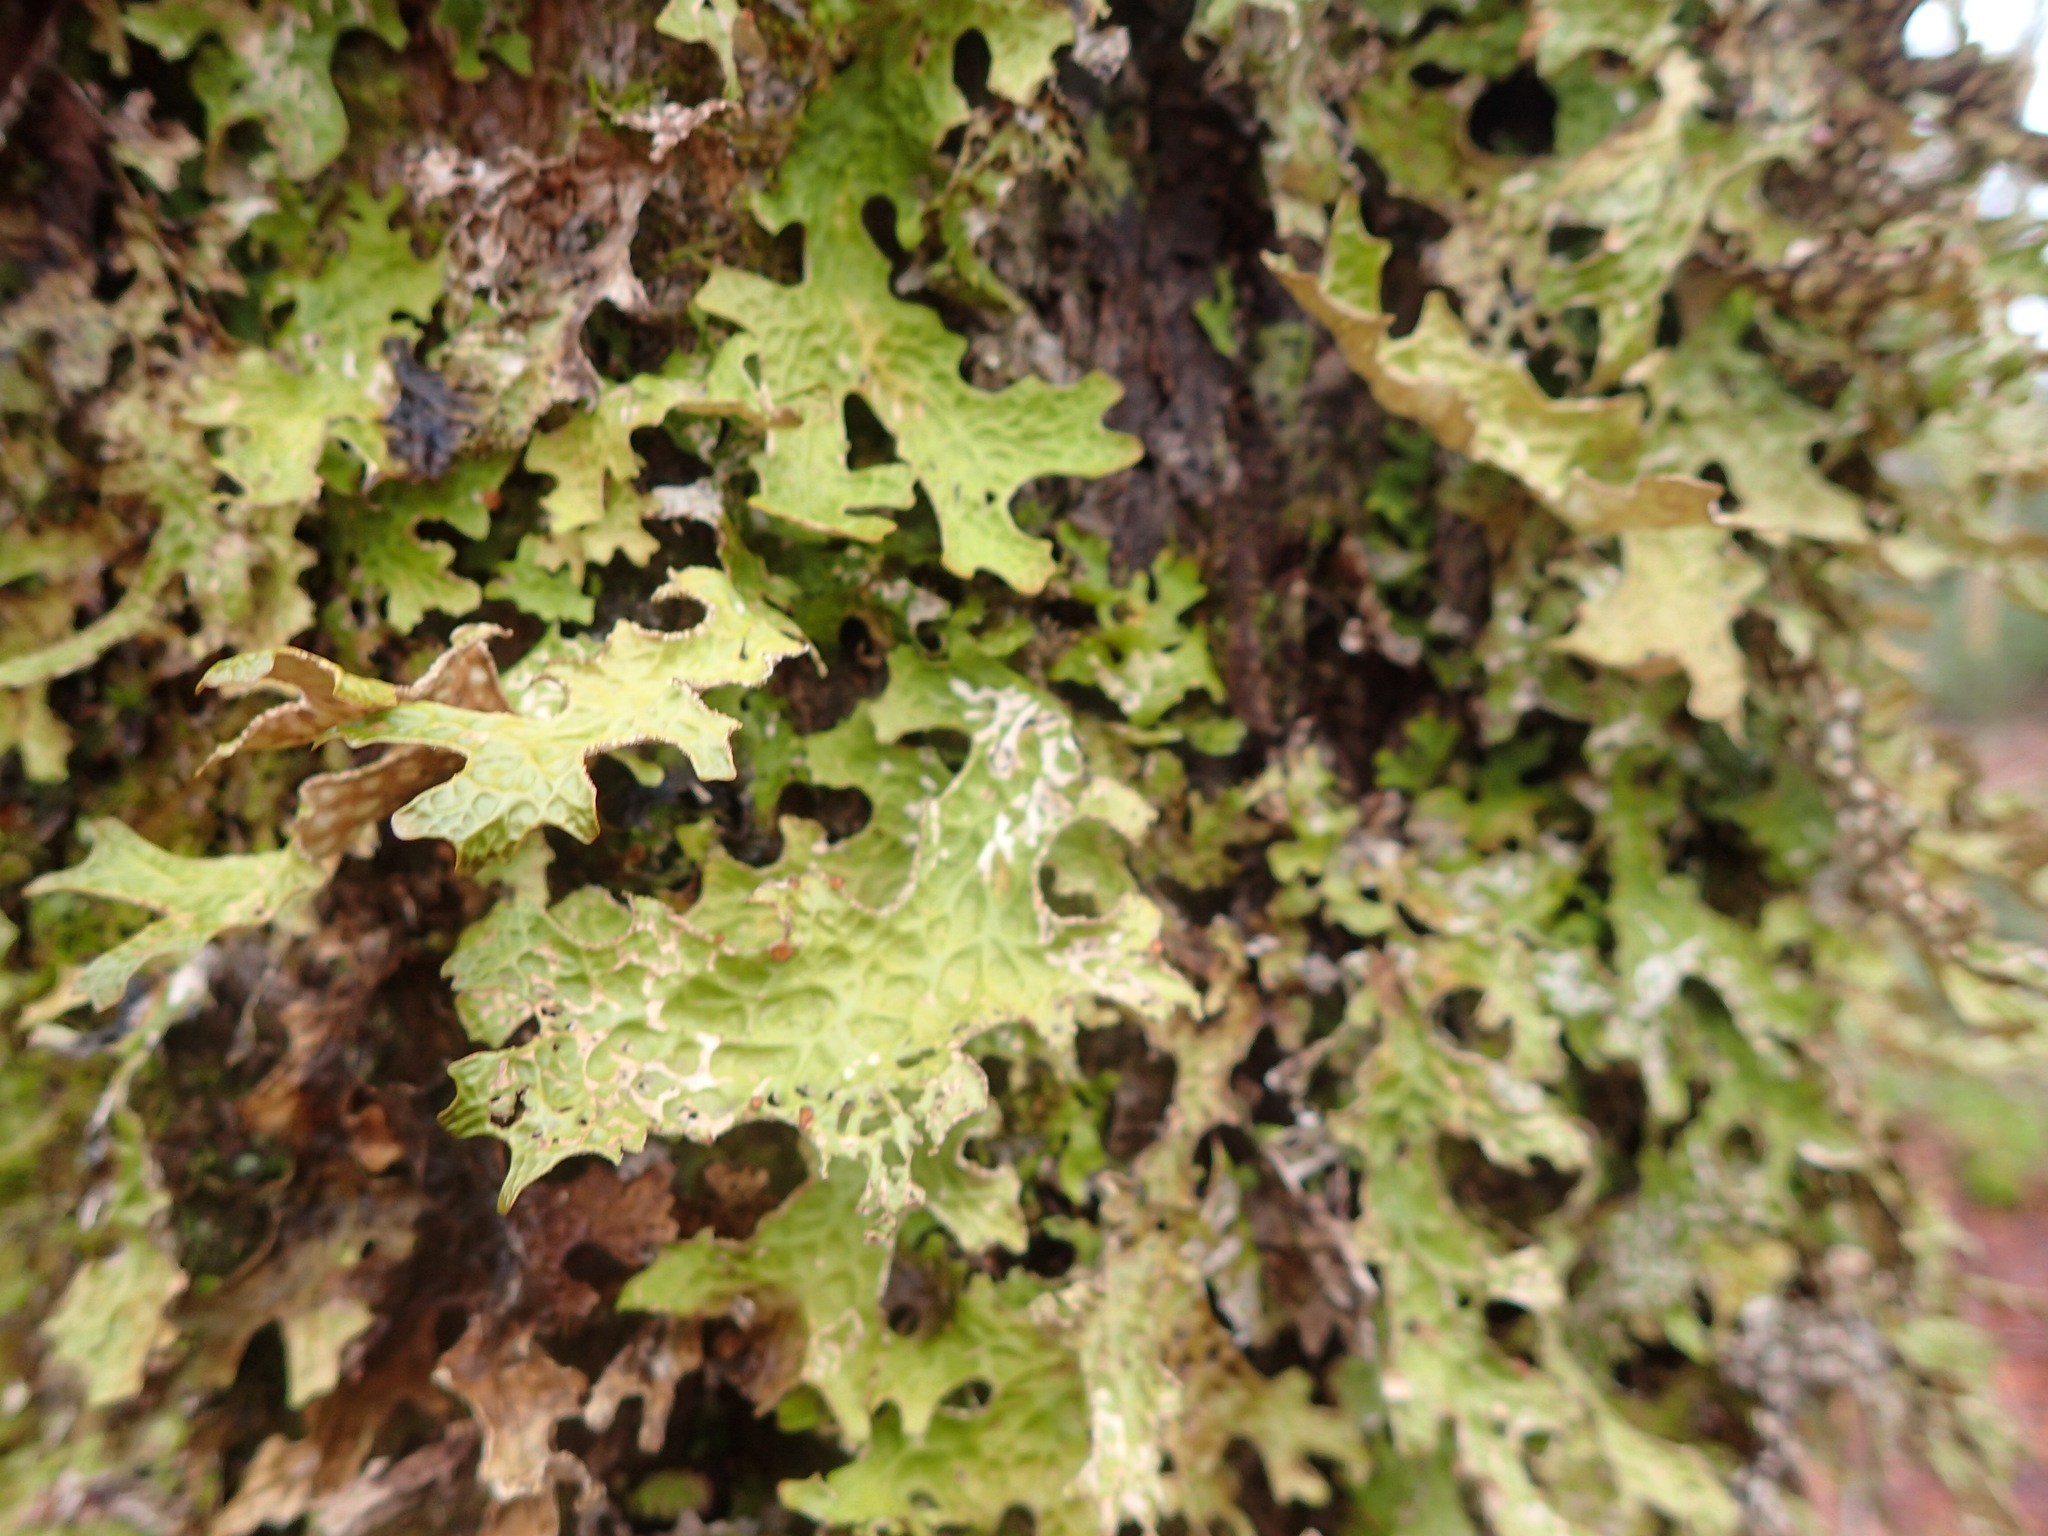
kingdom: Fungi
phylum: Ascomycota
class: Lecanoromycetes
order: Peltigerales
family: Lobariaceae
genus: Lobaria
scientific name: Lobaria pulmonaria
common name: Lungwort
